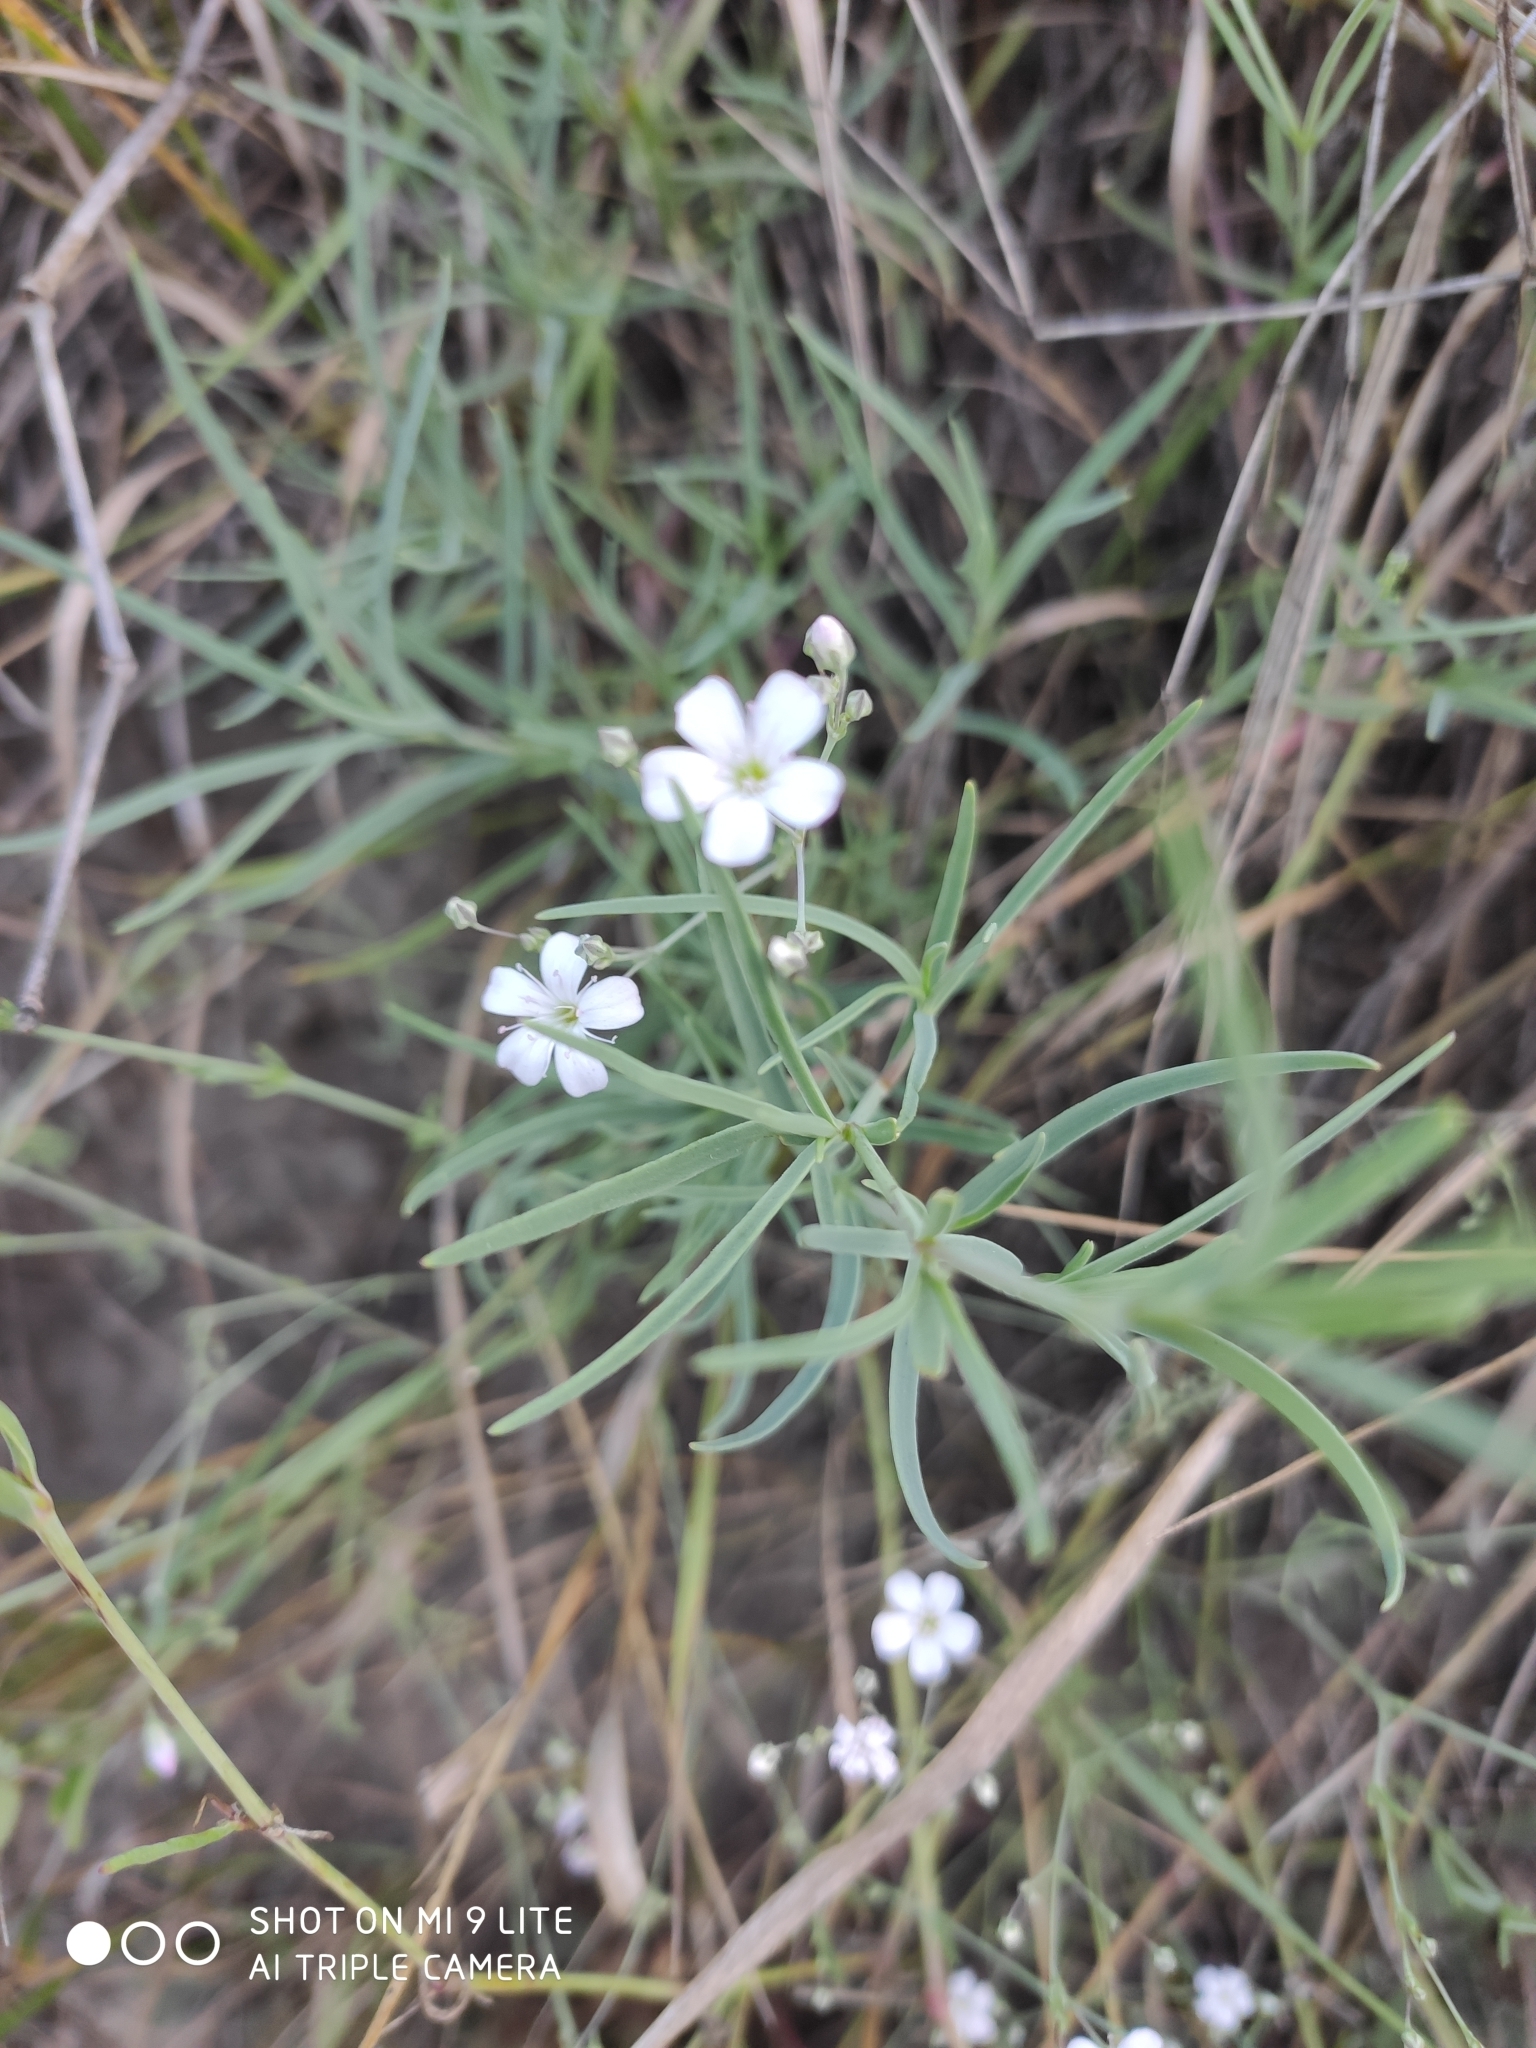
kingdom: Plantae
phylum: Tracheophyta
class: Magnoliopsida
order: Caryophyllales
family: Caryophyllaceae
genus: Gypsophila
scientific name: Gypsophila patrinii
